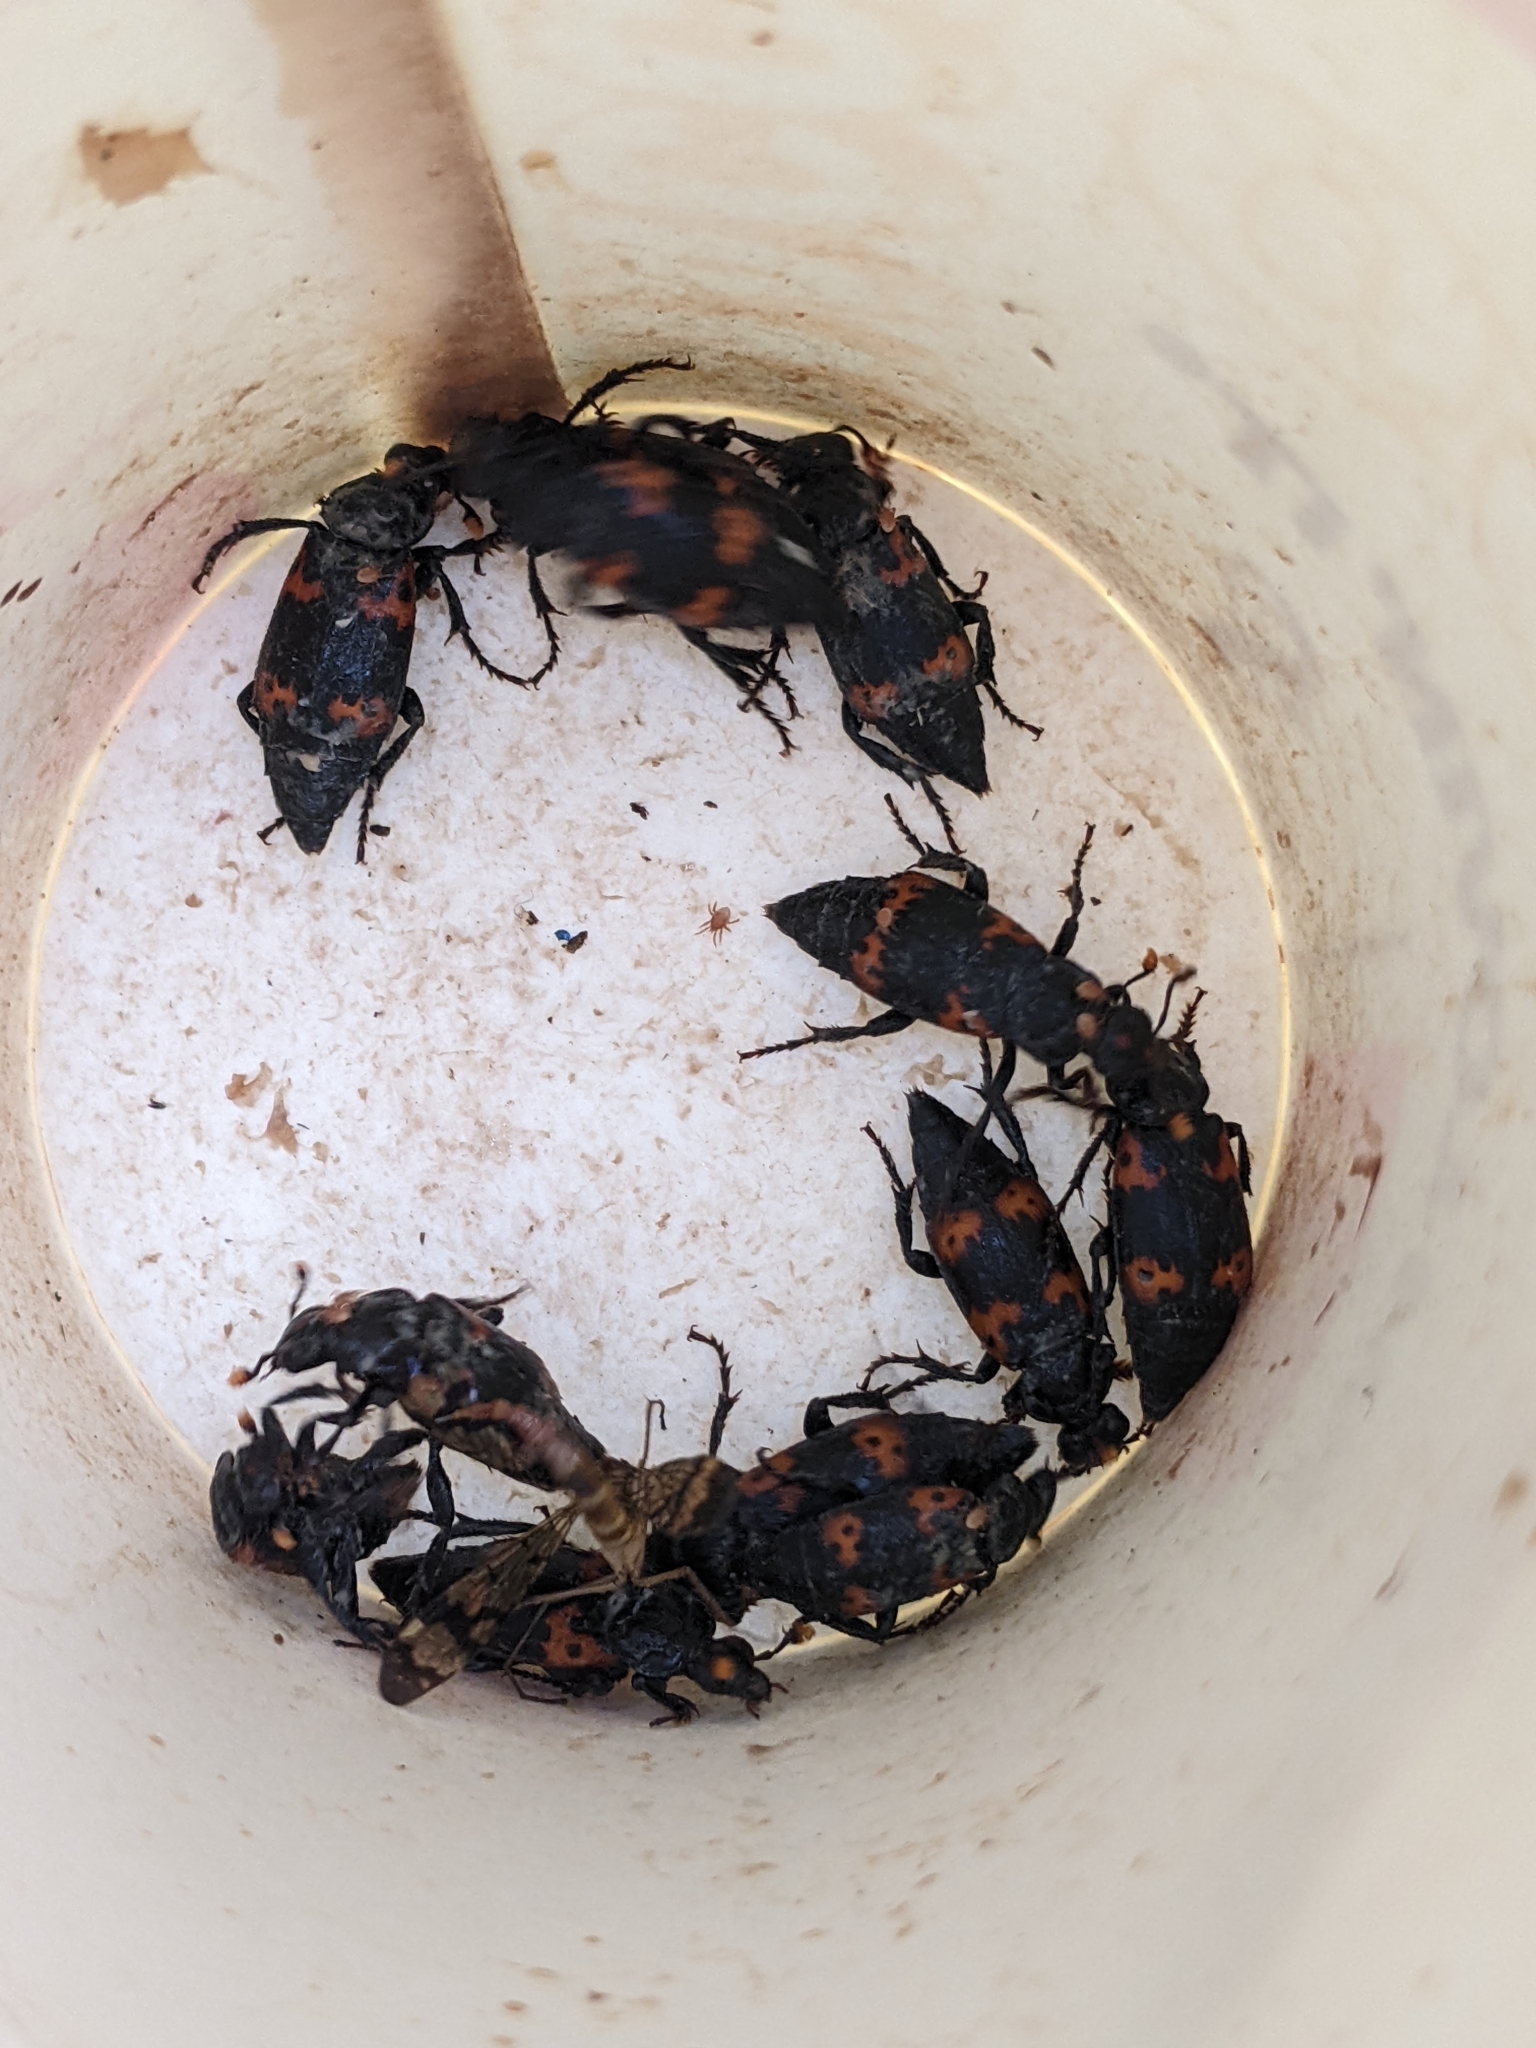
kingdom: Animalia
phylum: Arthropoda
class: Insecta
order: Coleoptera
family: Staphylinidae
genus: Nicrophorus
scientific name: Nicrophorus nepalensis
